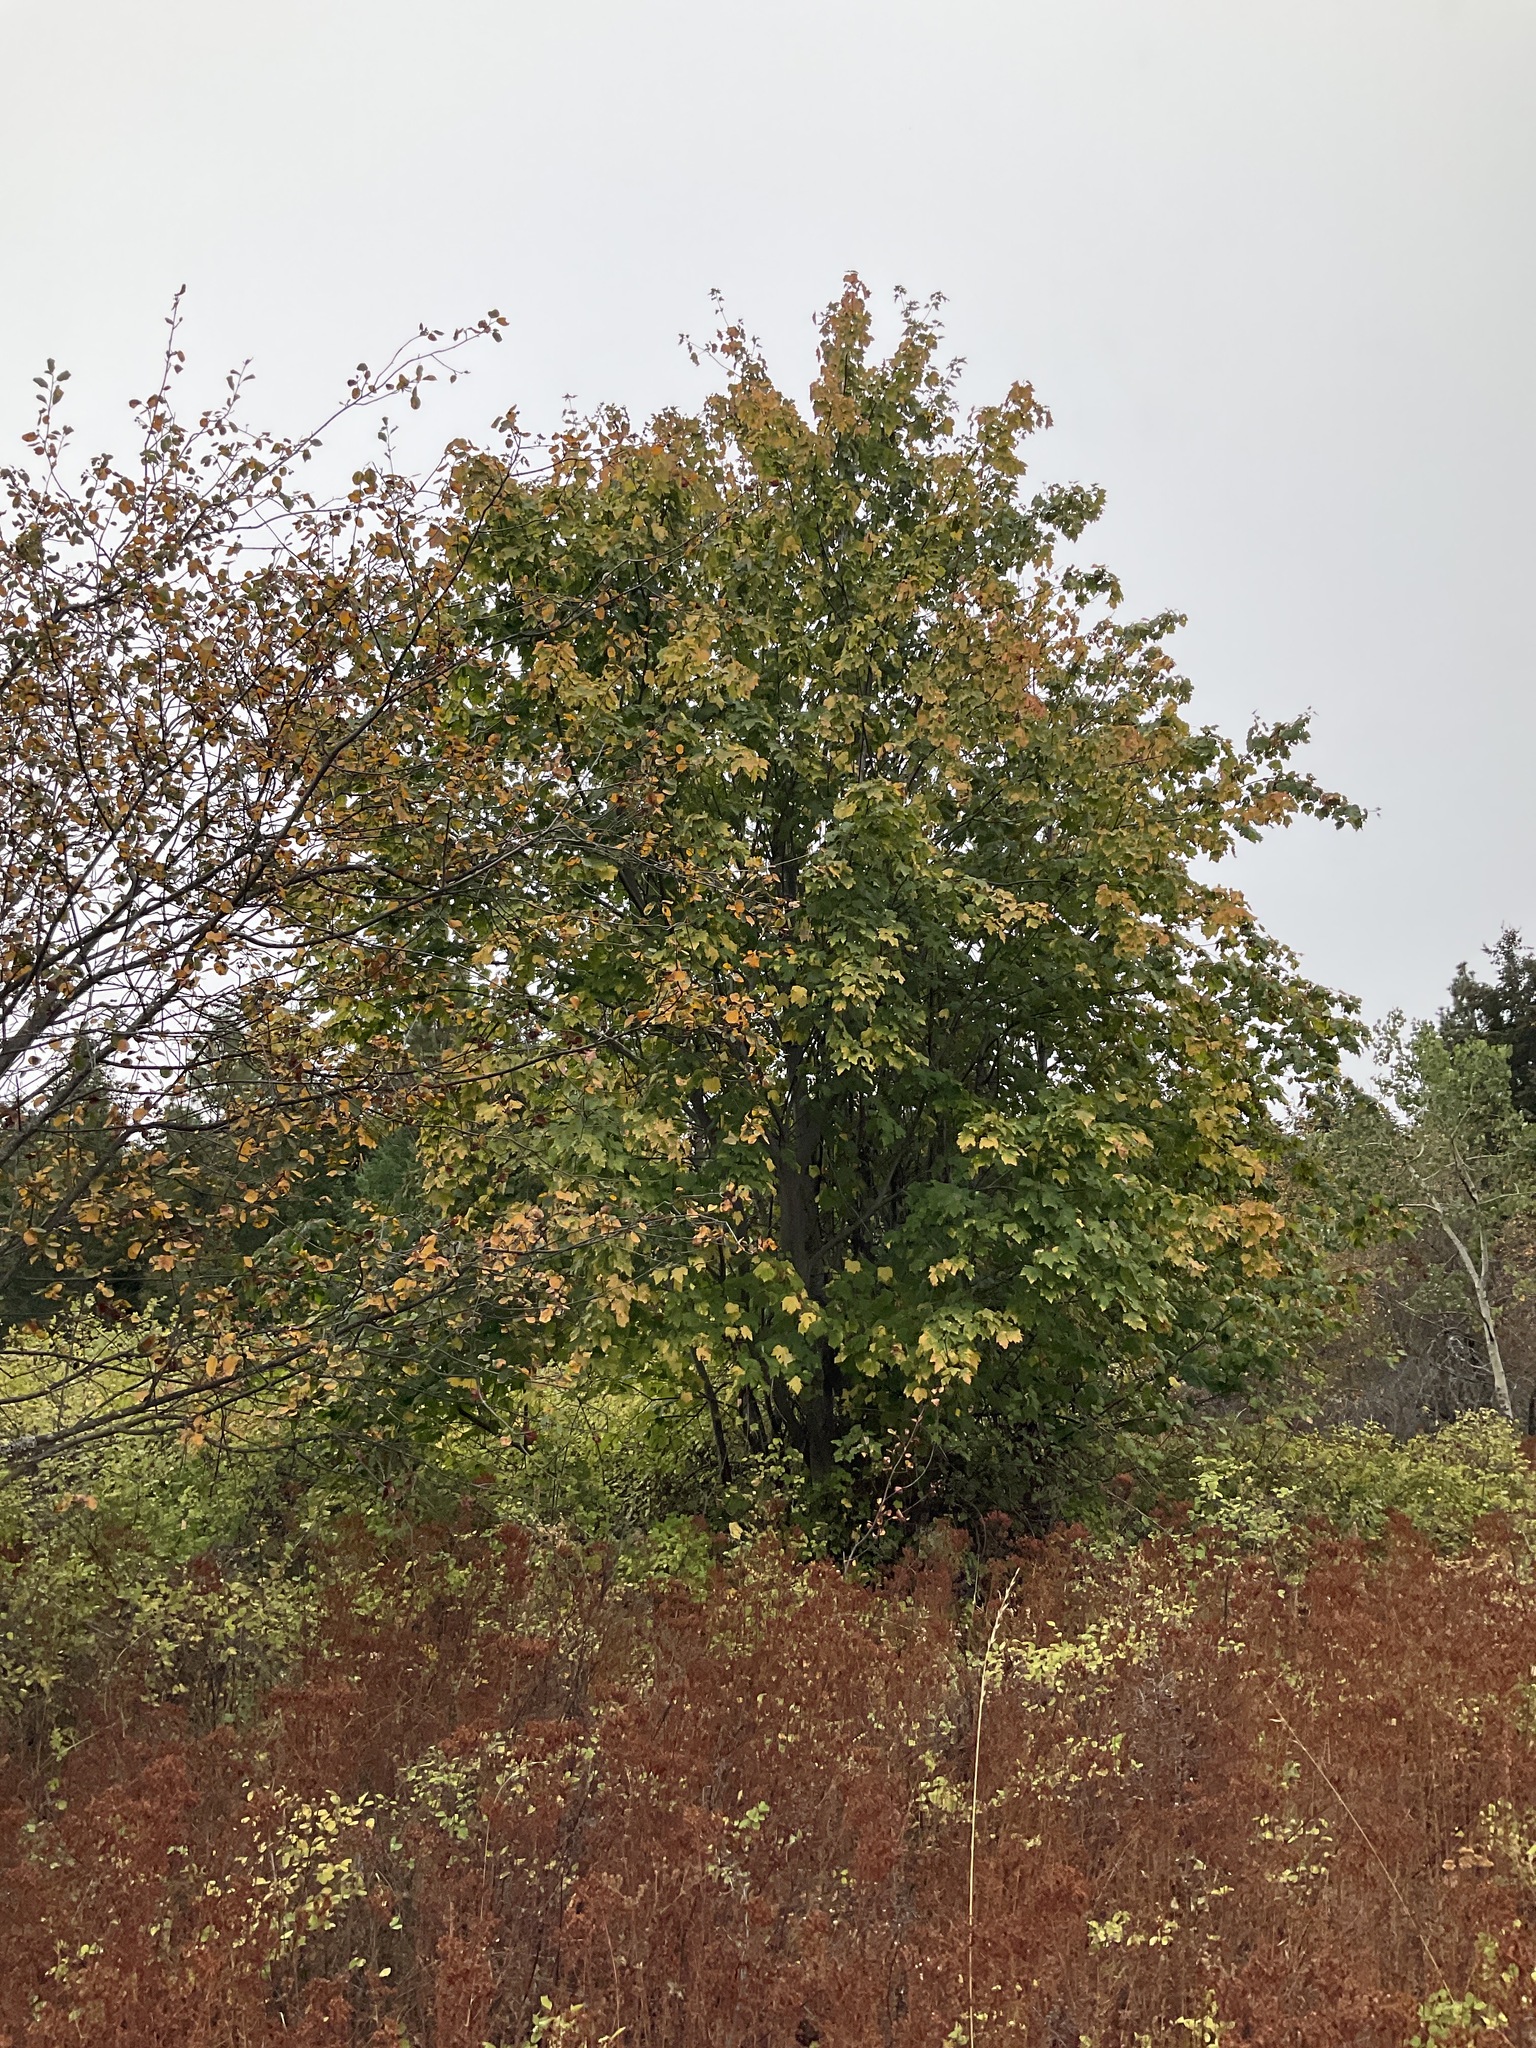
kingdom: Plantae
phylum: Tracheophyta
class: Magnoliopsida
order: Sapindales
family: Sapindaceae
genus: Acer
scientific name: Acer glabrum
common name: Rocky mountain maple
